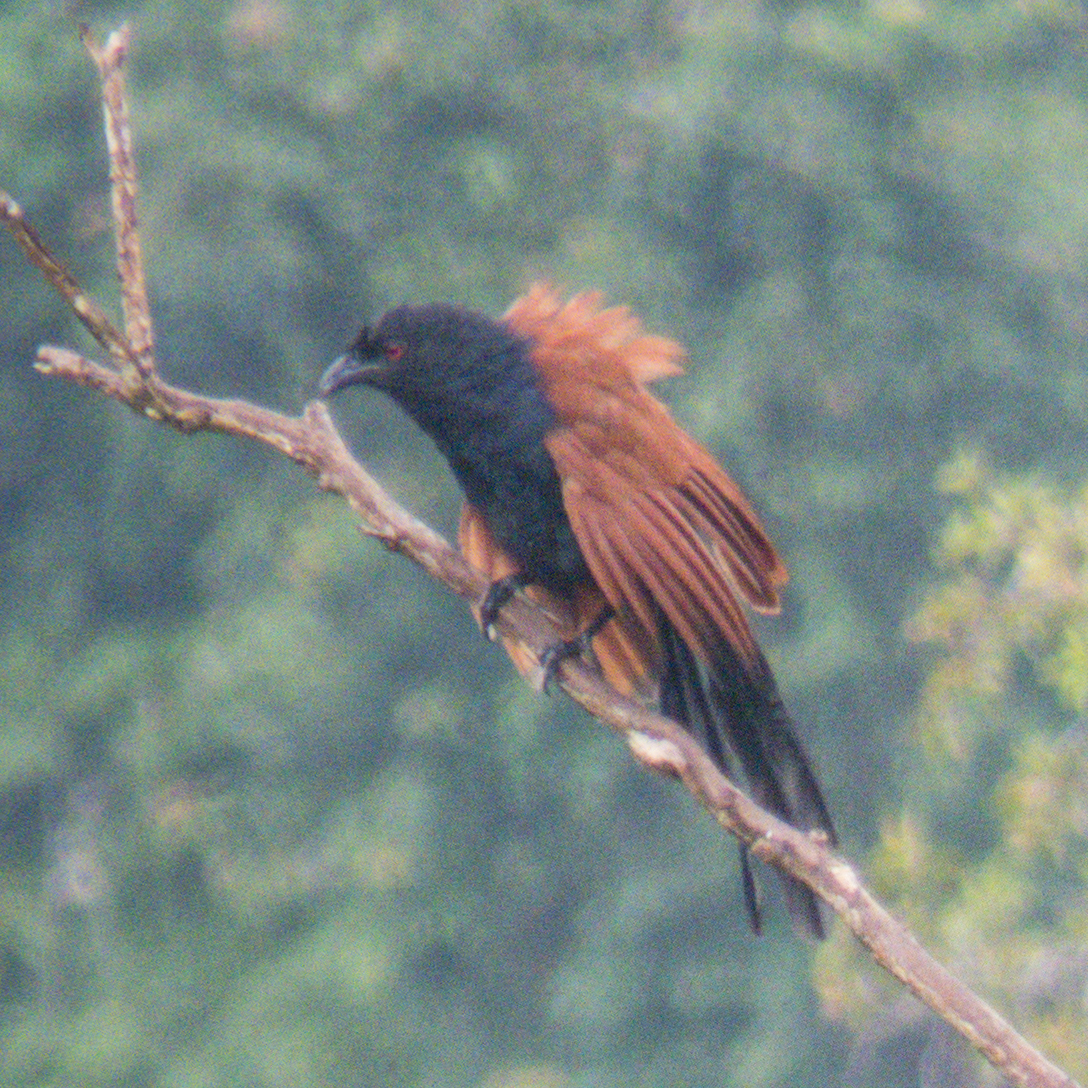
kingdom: Animalia
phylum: Chordata
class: Aves
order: Cuculiformes
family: Cuculidae
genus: Centropus
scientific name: Centropus sinensis
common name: Greater coucal
